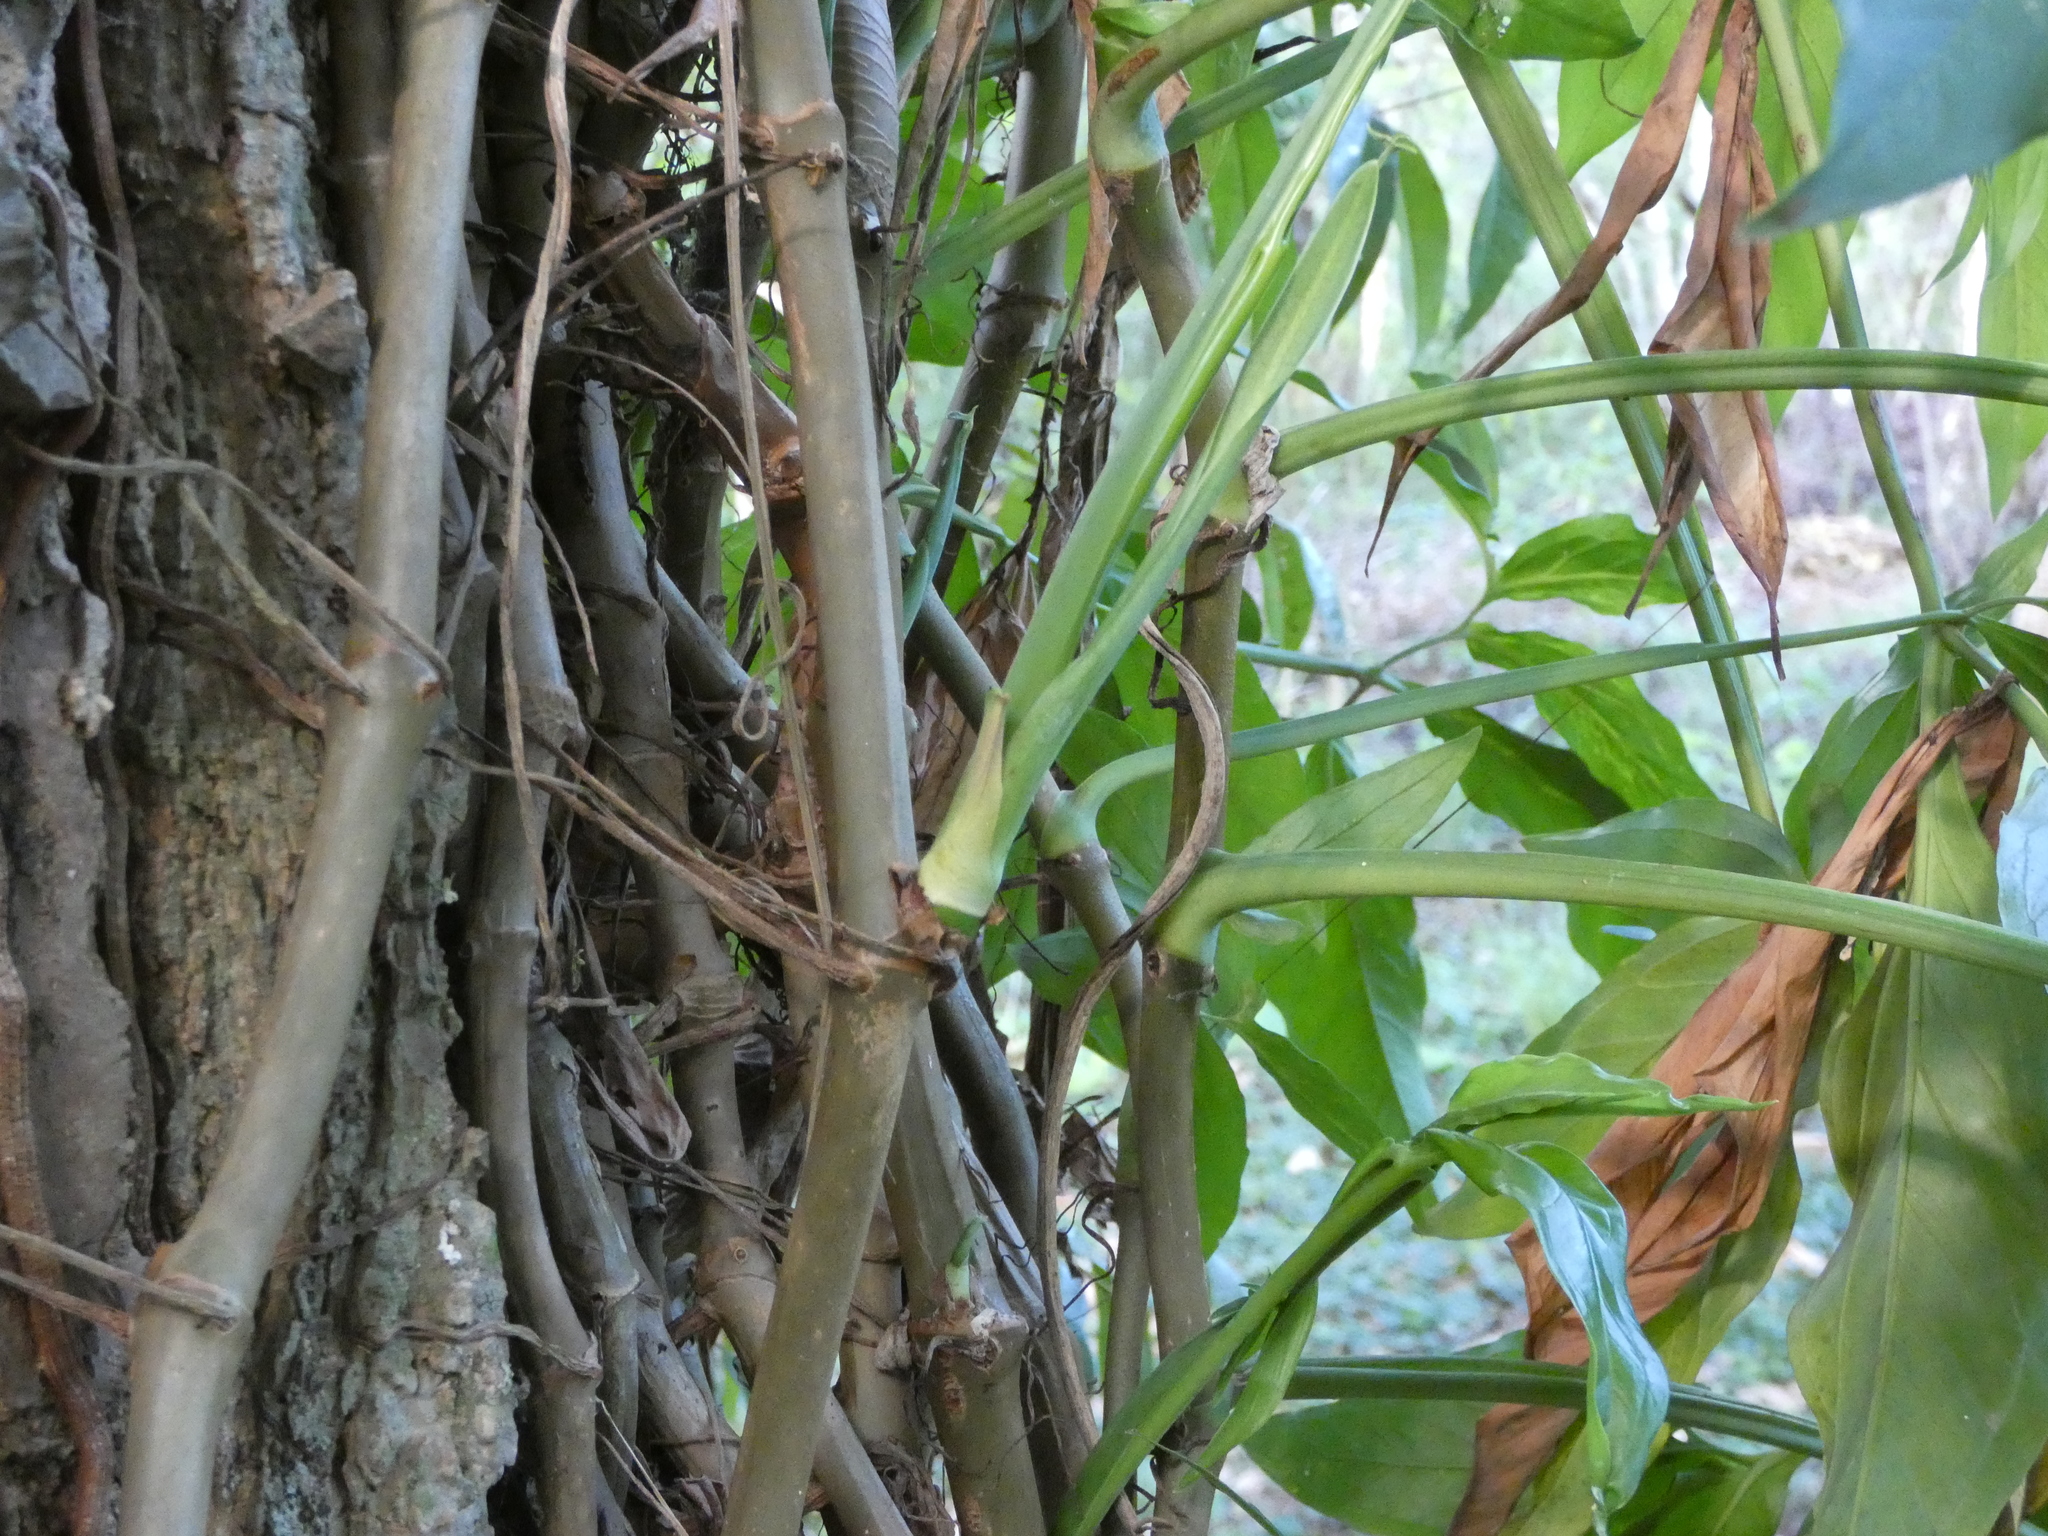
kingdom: Plantae
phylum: Tracheophyta
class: Liliopsida
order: Alismatales
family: Araceae
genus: Syngonium
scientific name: Syngonium angustatum
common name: Fivefingers
